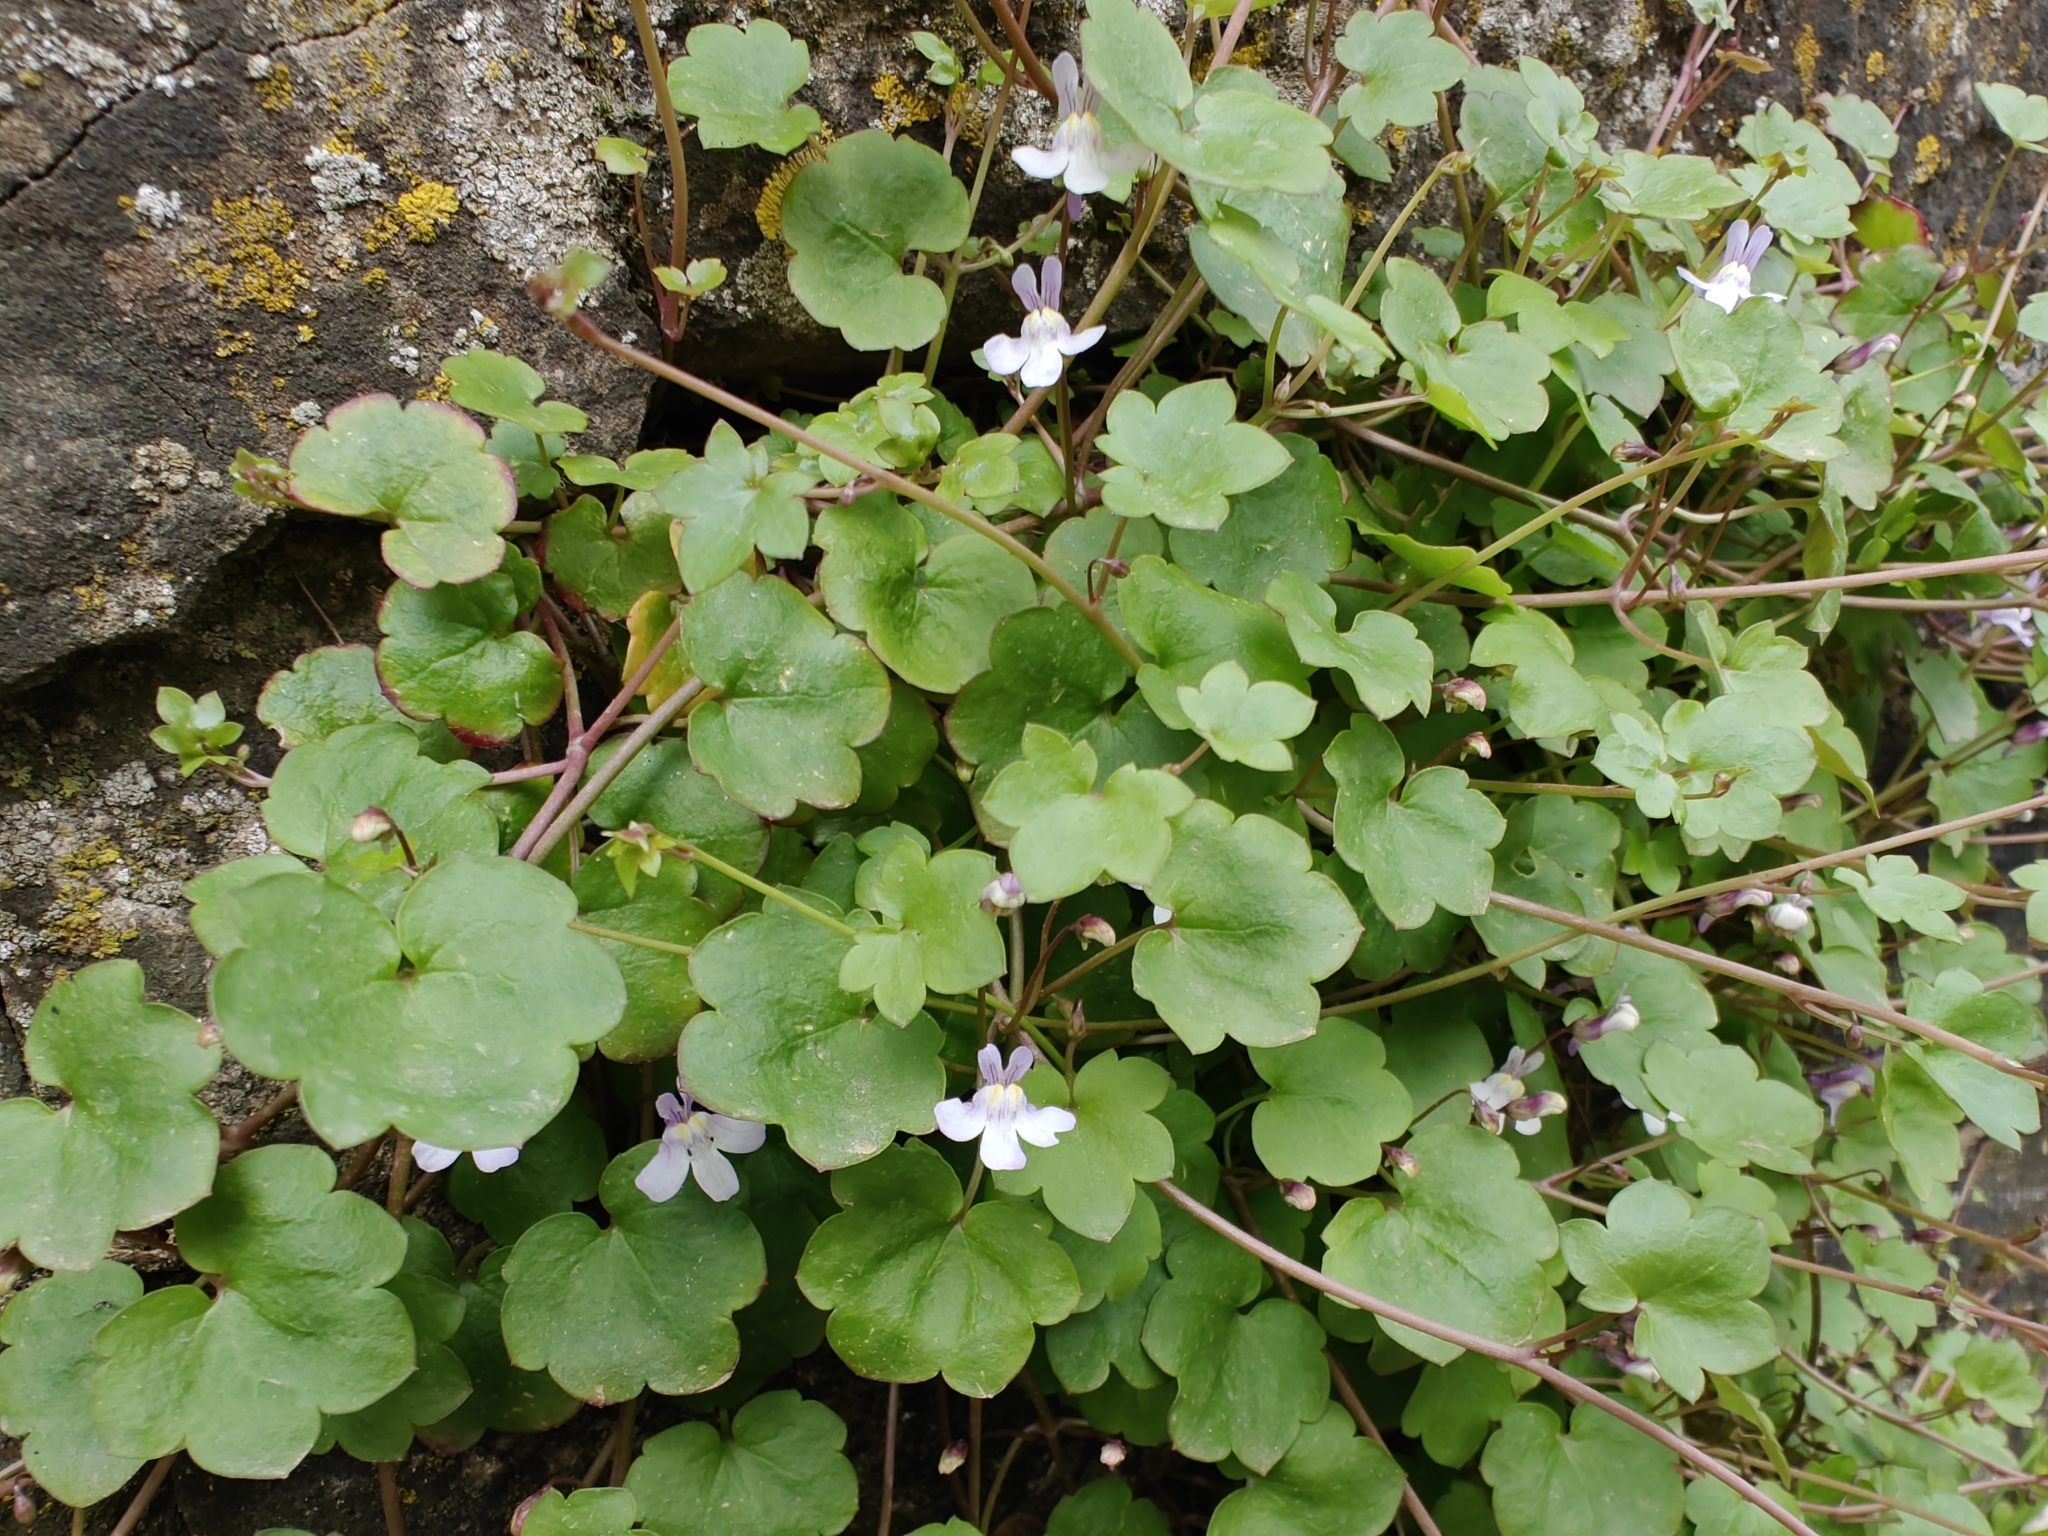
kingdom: Plantae
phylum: Tracheophyta
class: Magnoliopsida
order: Lamiales
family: Plantaginaceae
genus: Cymbalaria
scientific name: Cymbalaria muralis
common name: Ivy-leaved toadflax
